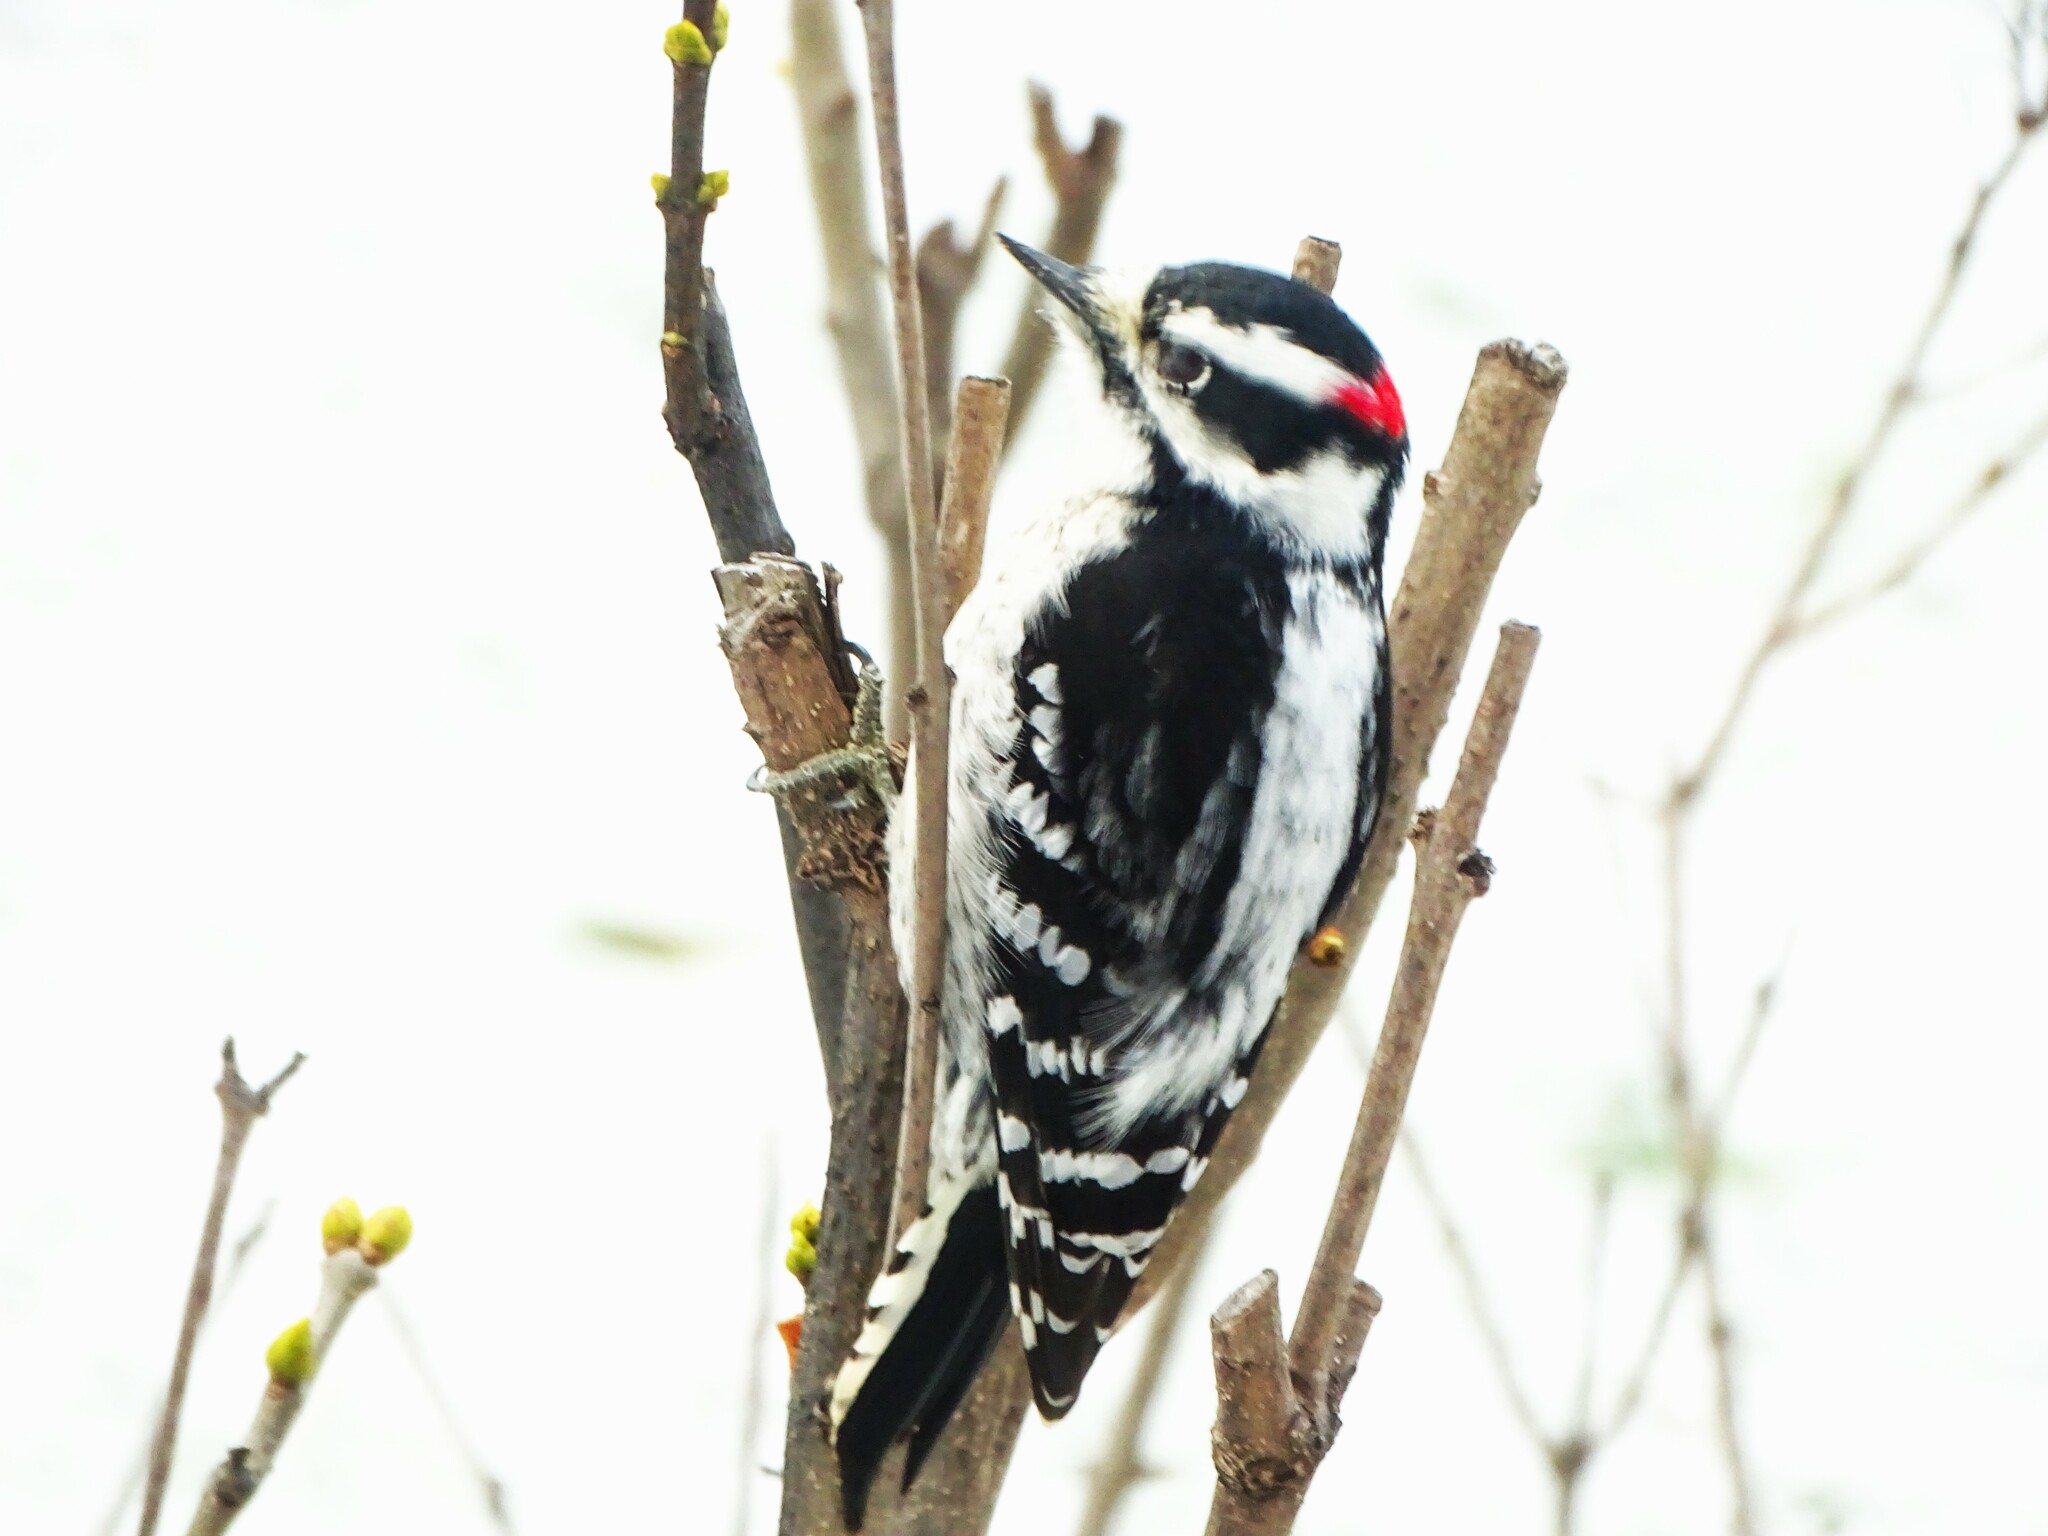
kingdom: Animalia
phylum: Chordata
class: Aves
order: Piciformes
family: Picidae
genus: Dryobates
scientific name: Dryobates pubescens
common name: Downy woodpecker
